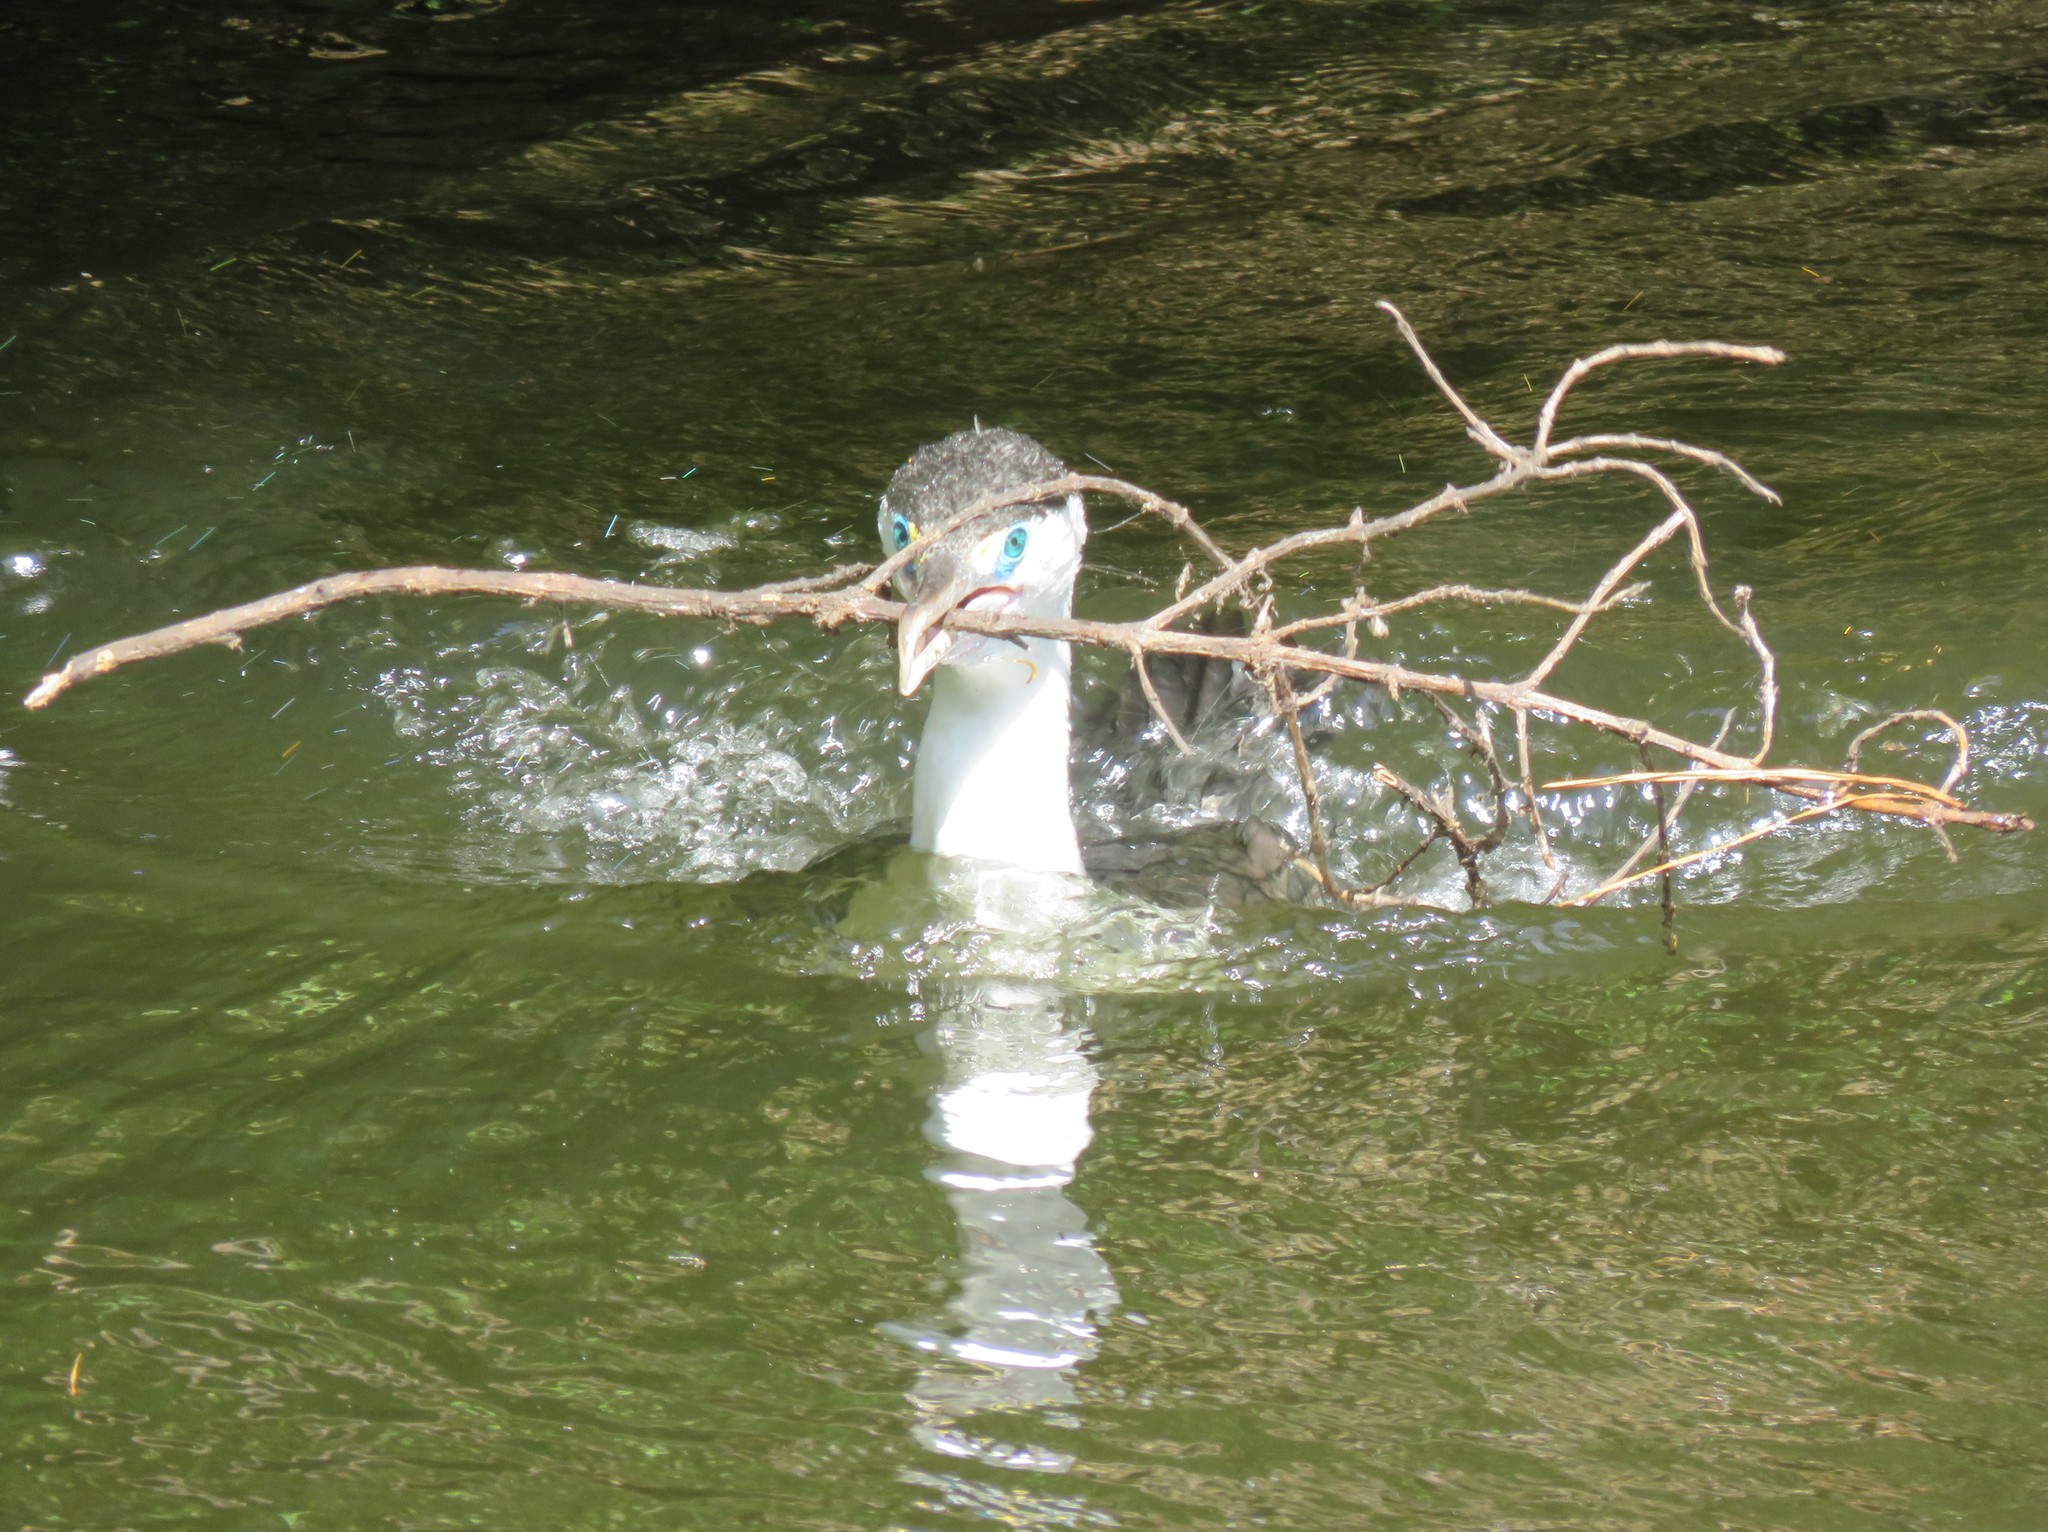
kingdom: Animalia
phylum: Chordata
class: Aves
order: Suliformes
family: Phalacrocoracidae
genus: Phalacrocorax
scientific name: Phalacrocorax varius
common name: Pied cormorant
